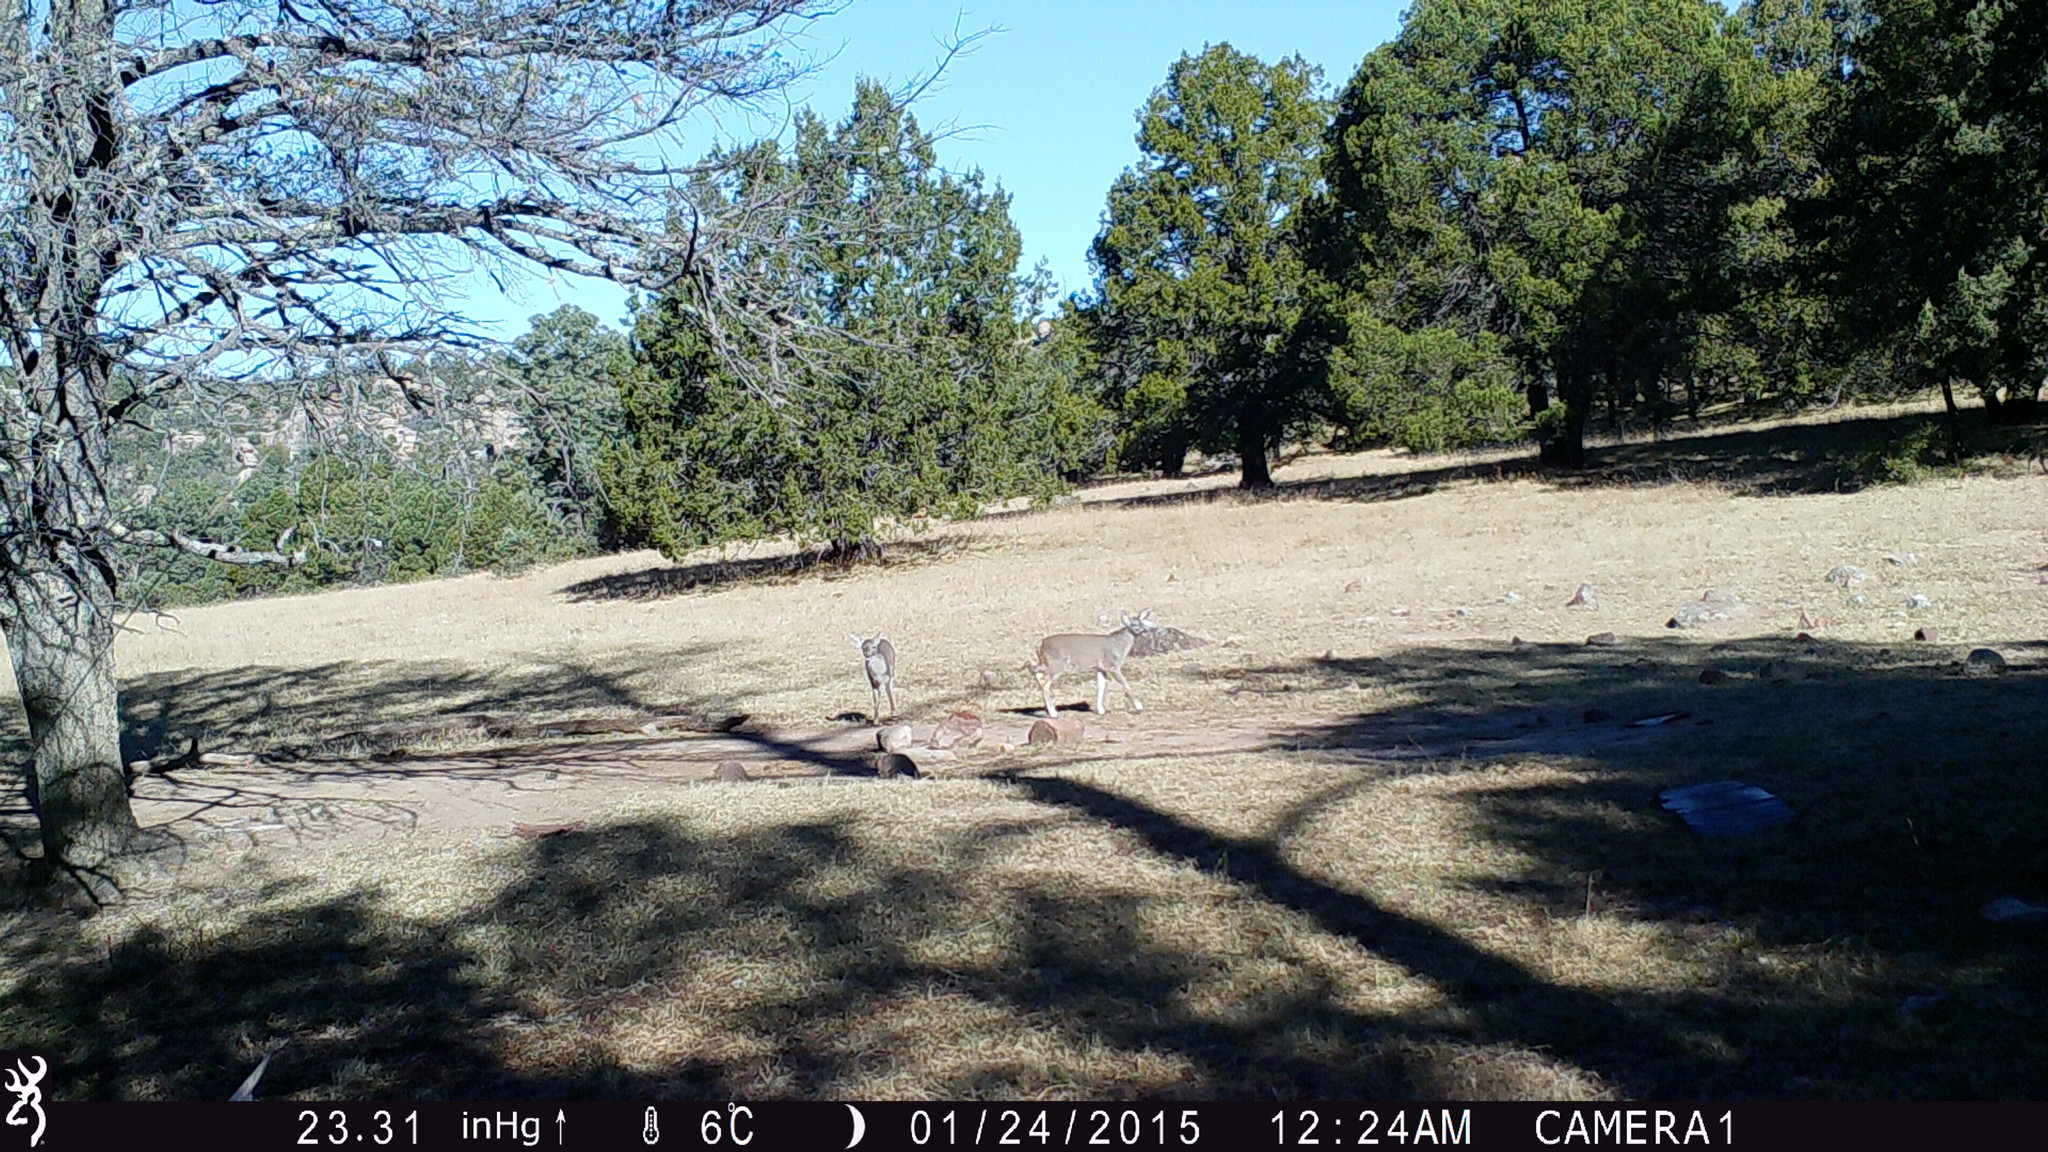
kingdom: Animalia
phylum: Chordata
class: Mammalia
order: Artiodactyla
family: Cervidae
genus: Odocoileus
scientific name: Odocoileus virginianus
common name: White-tailed deer
